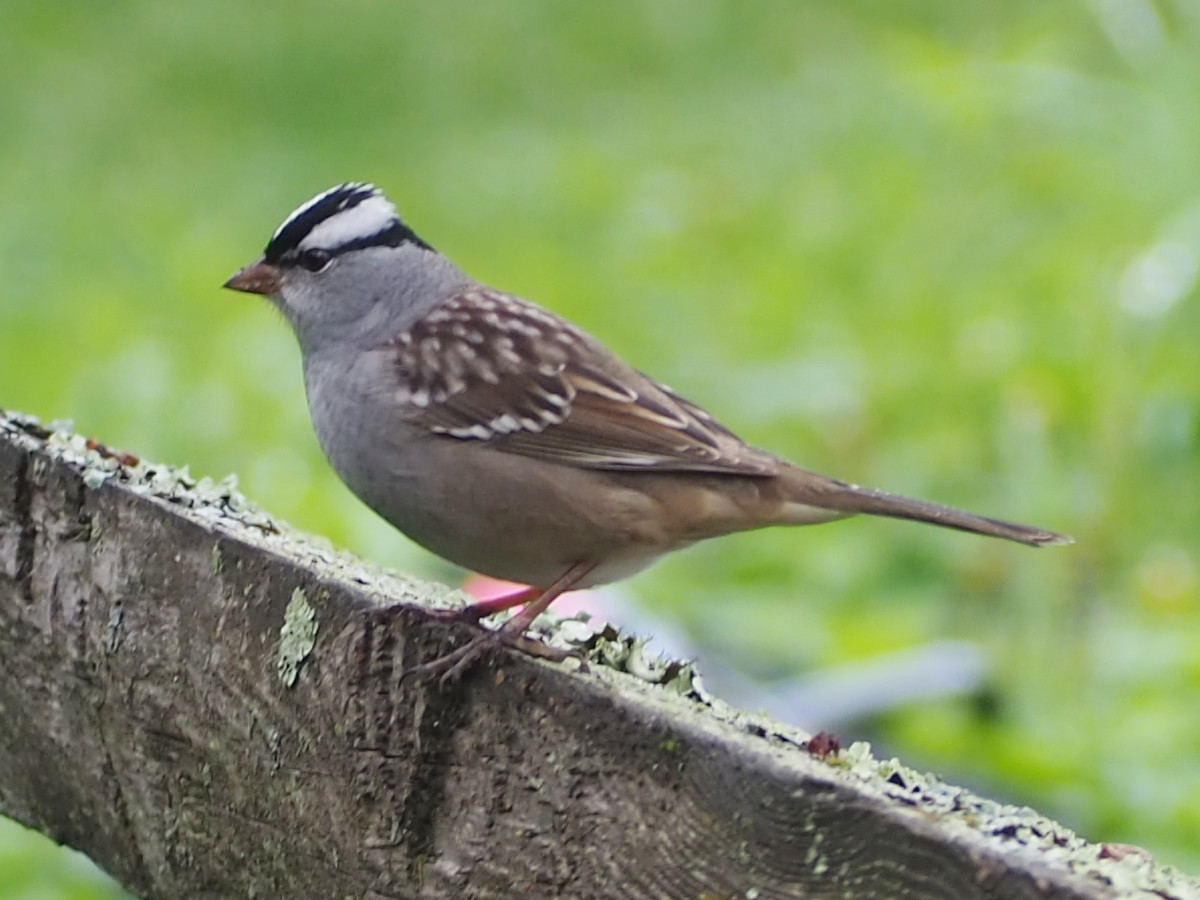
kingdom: Animalia
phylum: Chordata
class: Aves
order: Passeriformes
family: Passerellidae
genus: Zonotrichia
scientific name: Zonotrichia leucophrys
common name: White-crowned sparrow
